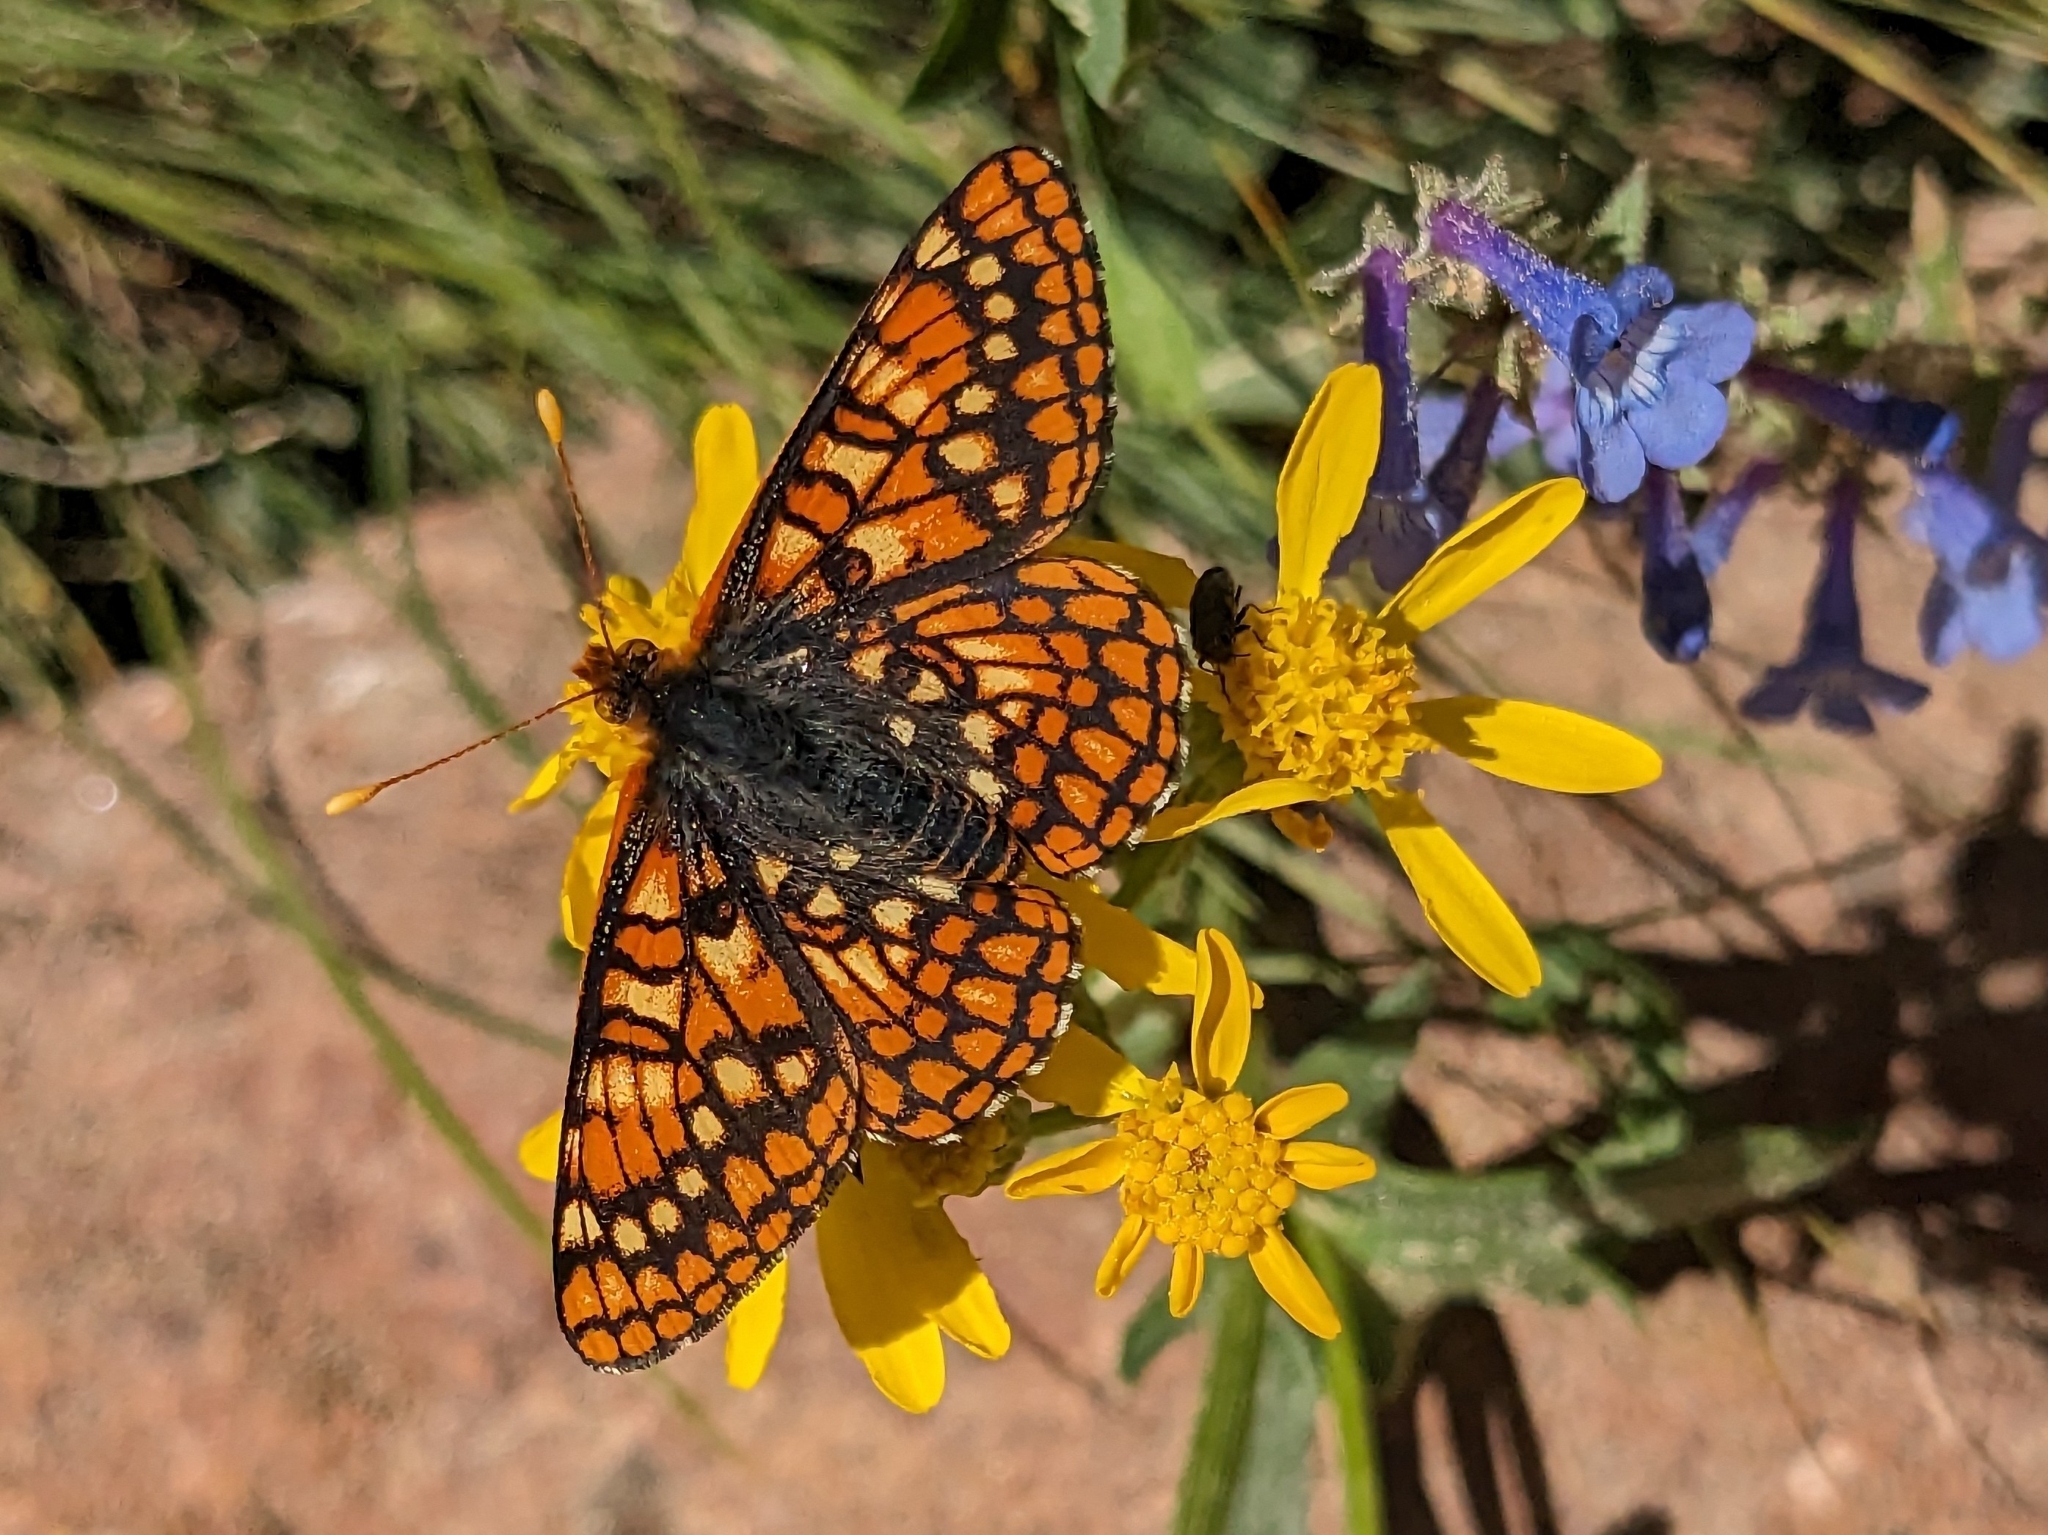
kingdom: Animalia
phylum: Arthropoda
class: Insecta
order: Lepidoptera
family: Nymphalidae
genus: Occidryas
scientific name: Occidryas anicia
